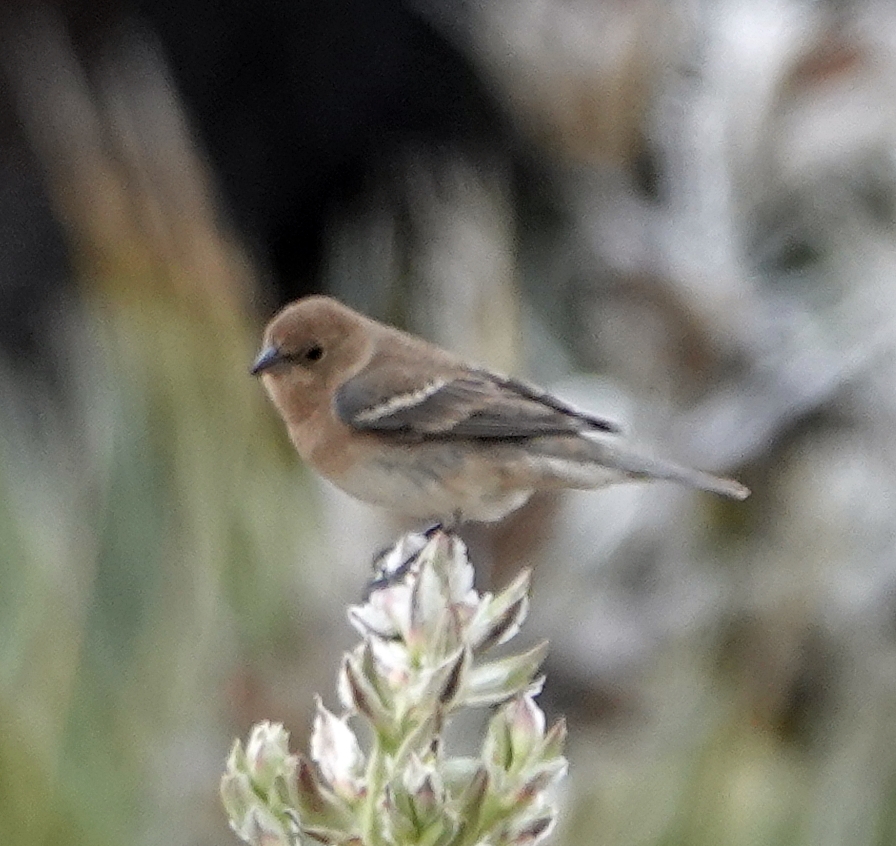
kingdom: Animalia
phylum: Chordata
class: Aves
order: Passeriformes
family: Cardinalidae
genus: Passerina
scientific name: Passerina amoena
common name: Lazuli bunting
